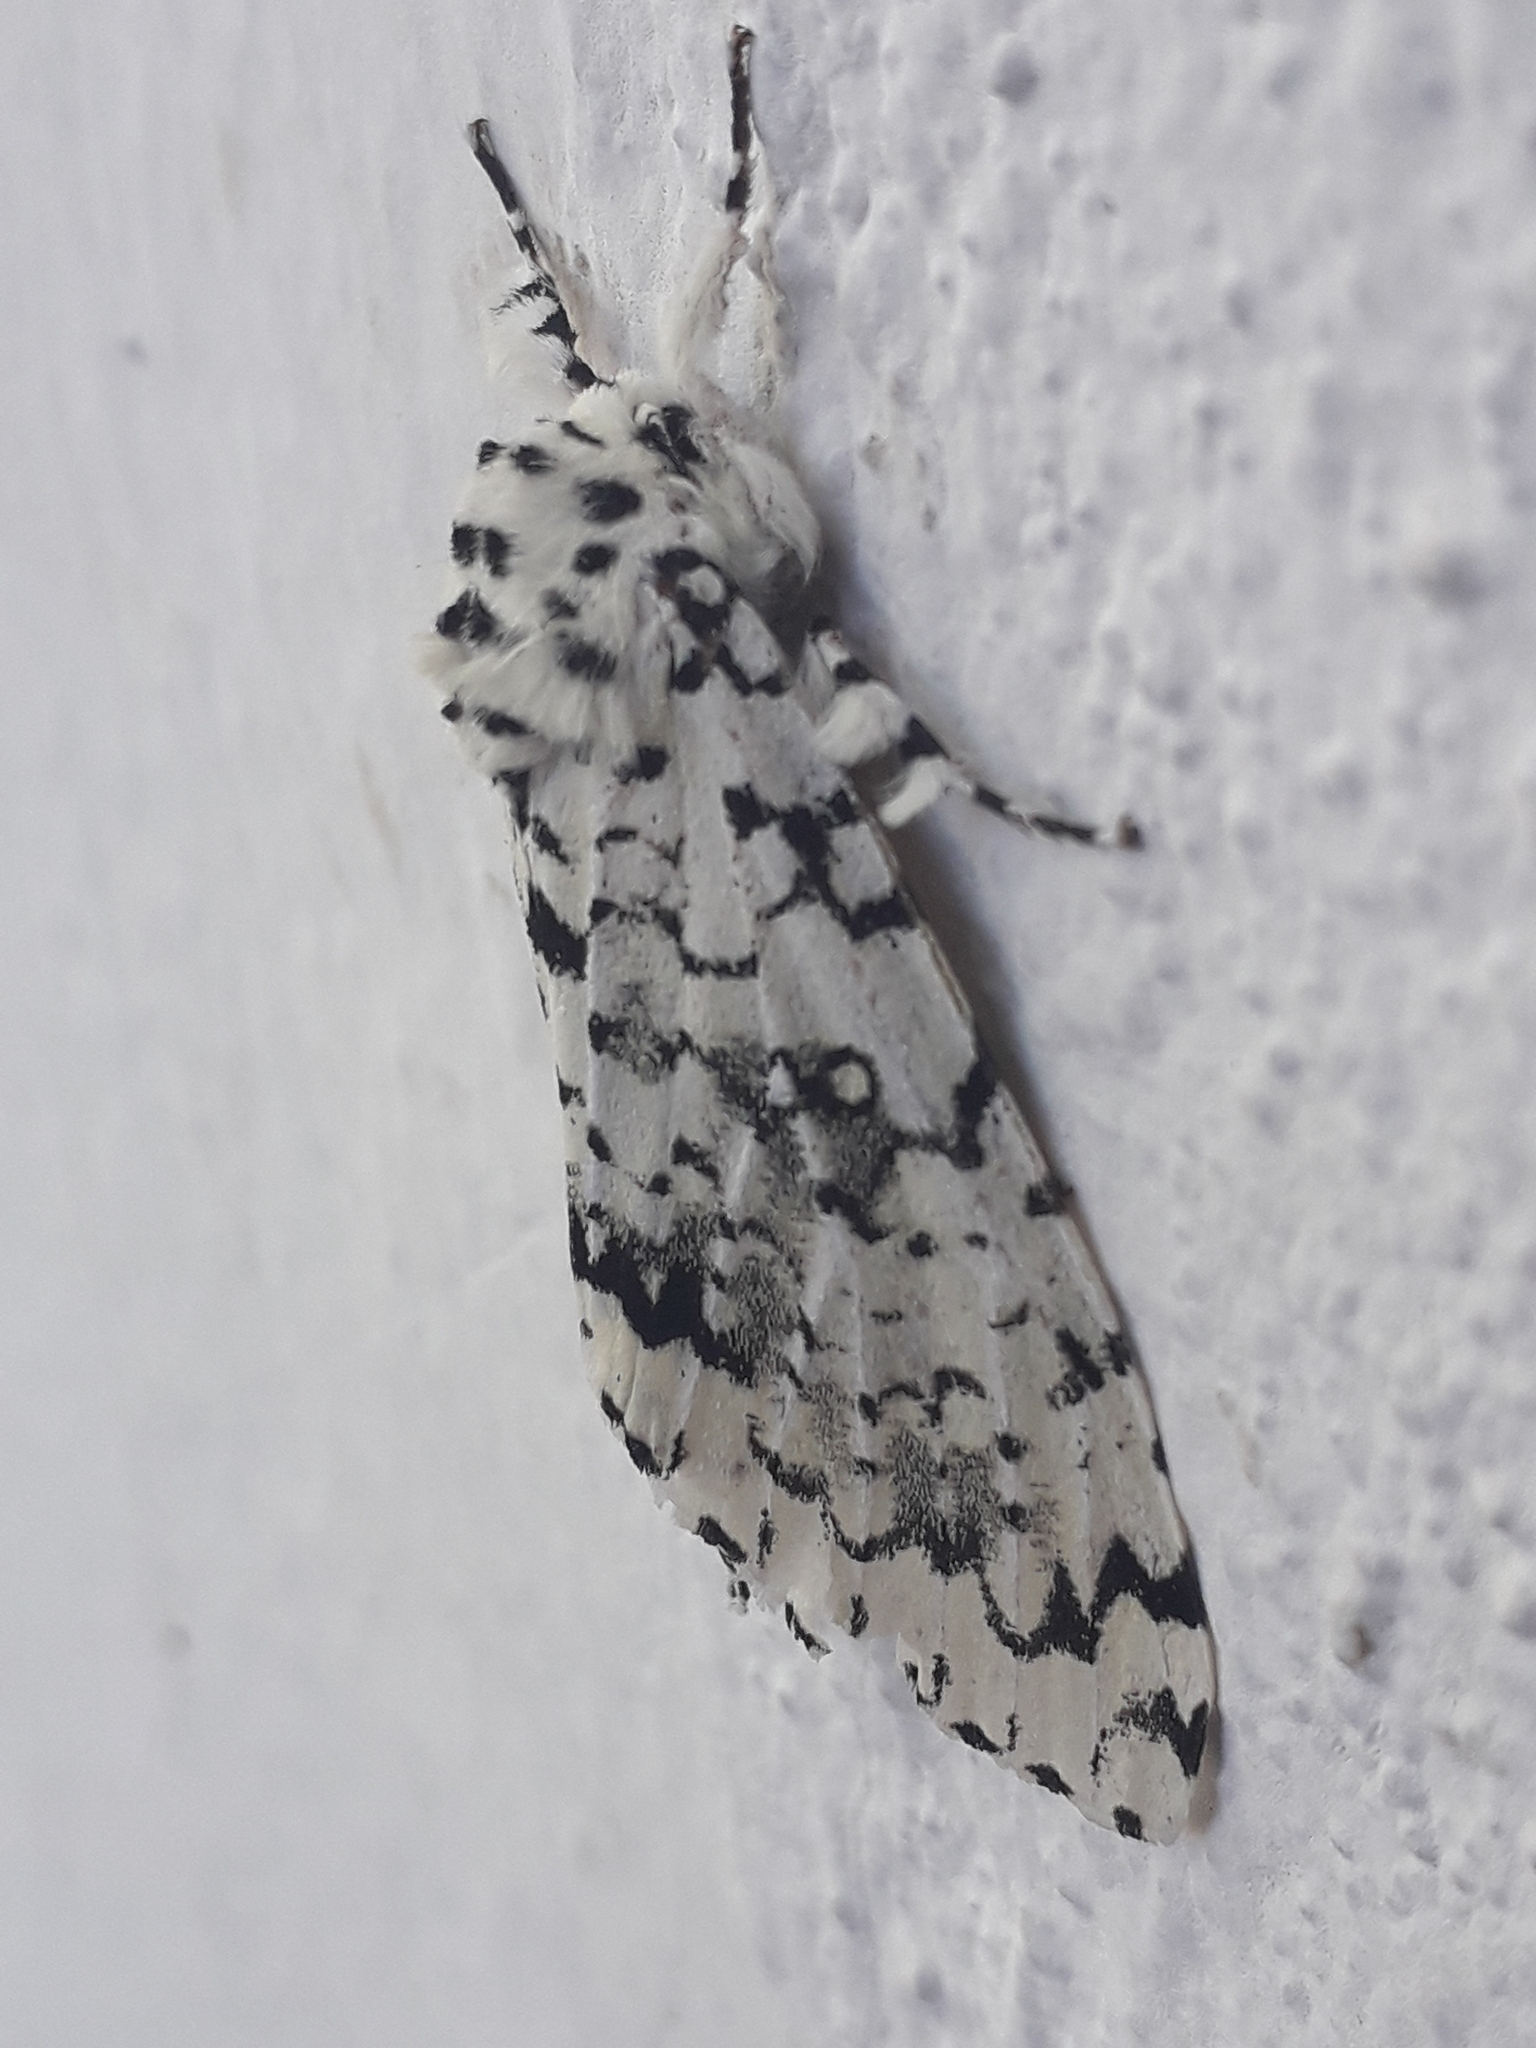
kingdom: Animalia
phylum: Arthropoda
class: Insecta
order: Lepidoptera
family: Noctuidae
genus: Lichnoptera
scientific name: Lichnoptera decora
